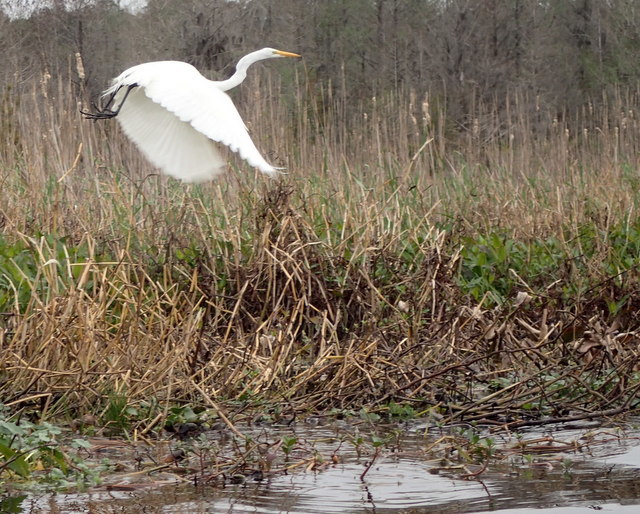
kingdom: Animalia
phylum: Chordata
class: Aves
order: Pelecaniformes
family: Ardeidae
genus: Ardea
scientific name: Ardea alba
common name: Great egret
